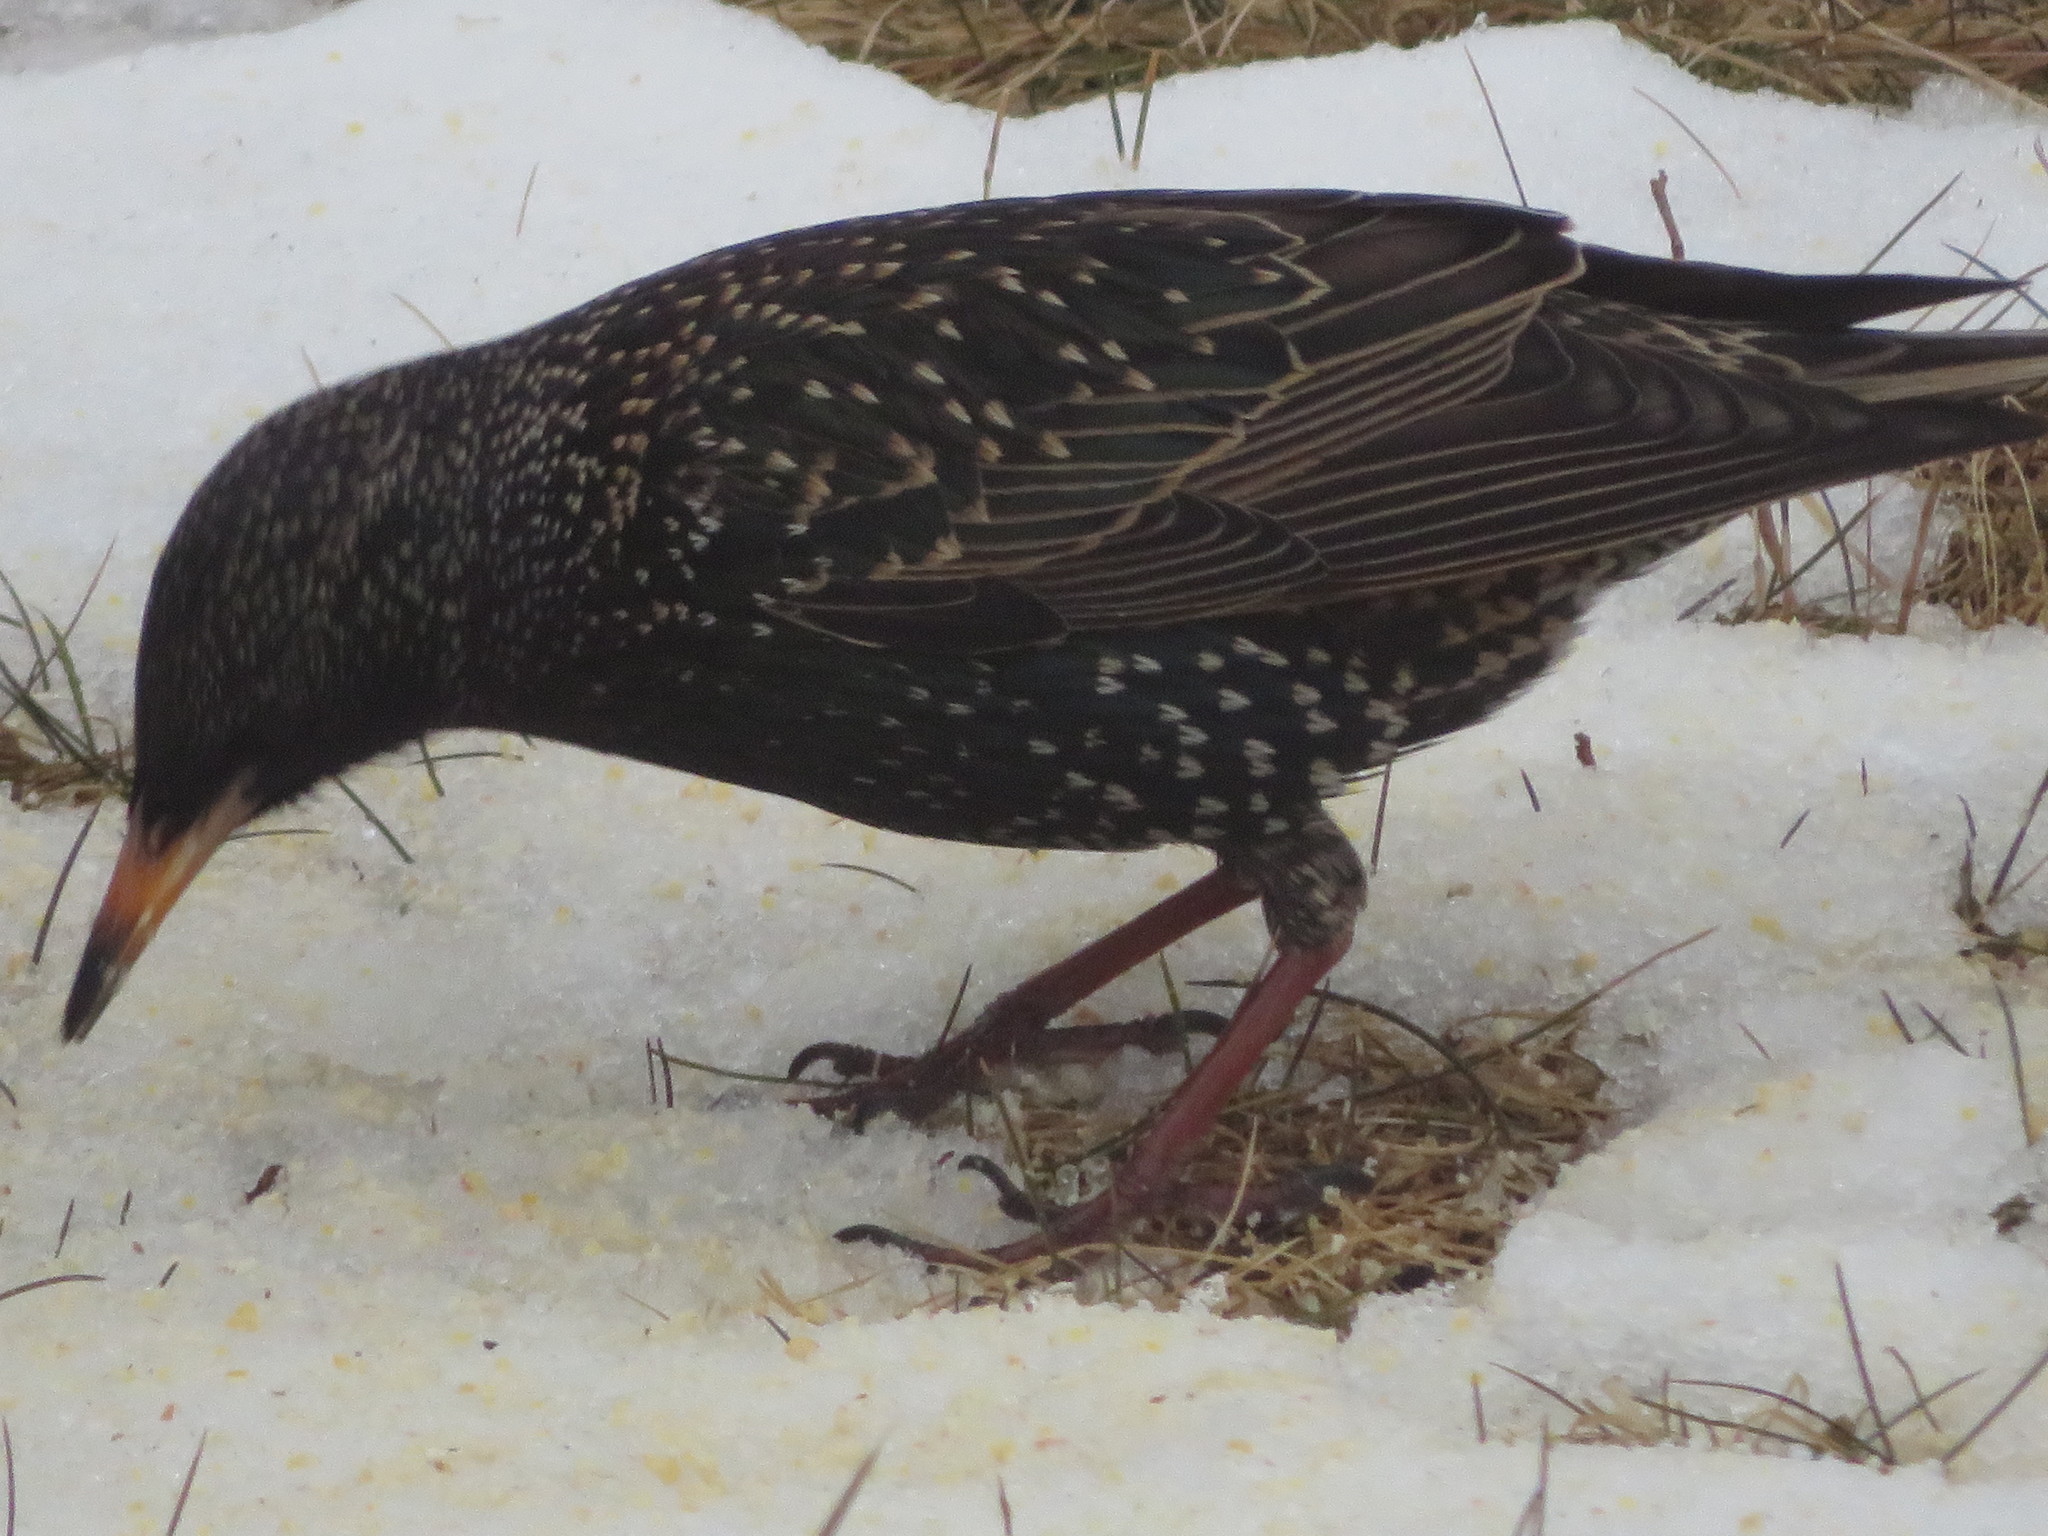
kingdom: Animalia
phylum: Chordata
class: Aves
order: Passeriformes
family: Sturnidae
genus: Sturnus
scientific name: Sturnus vulgaris
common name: Common starling
